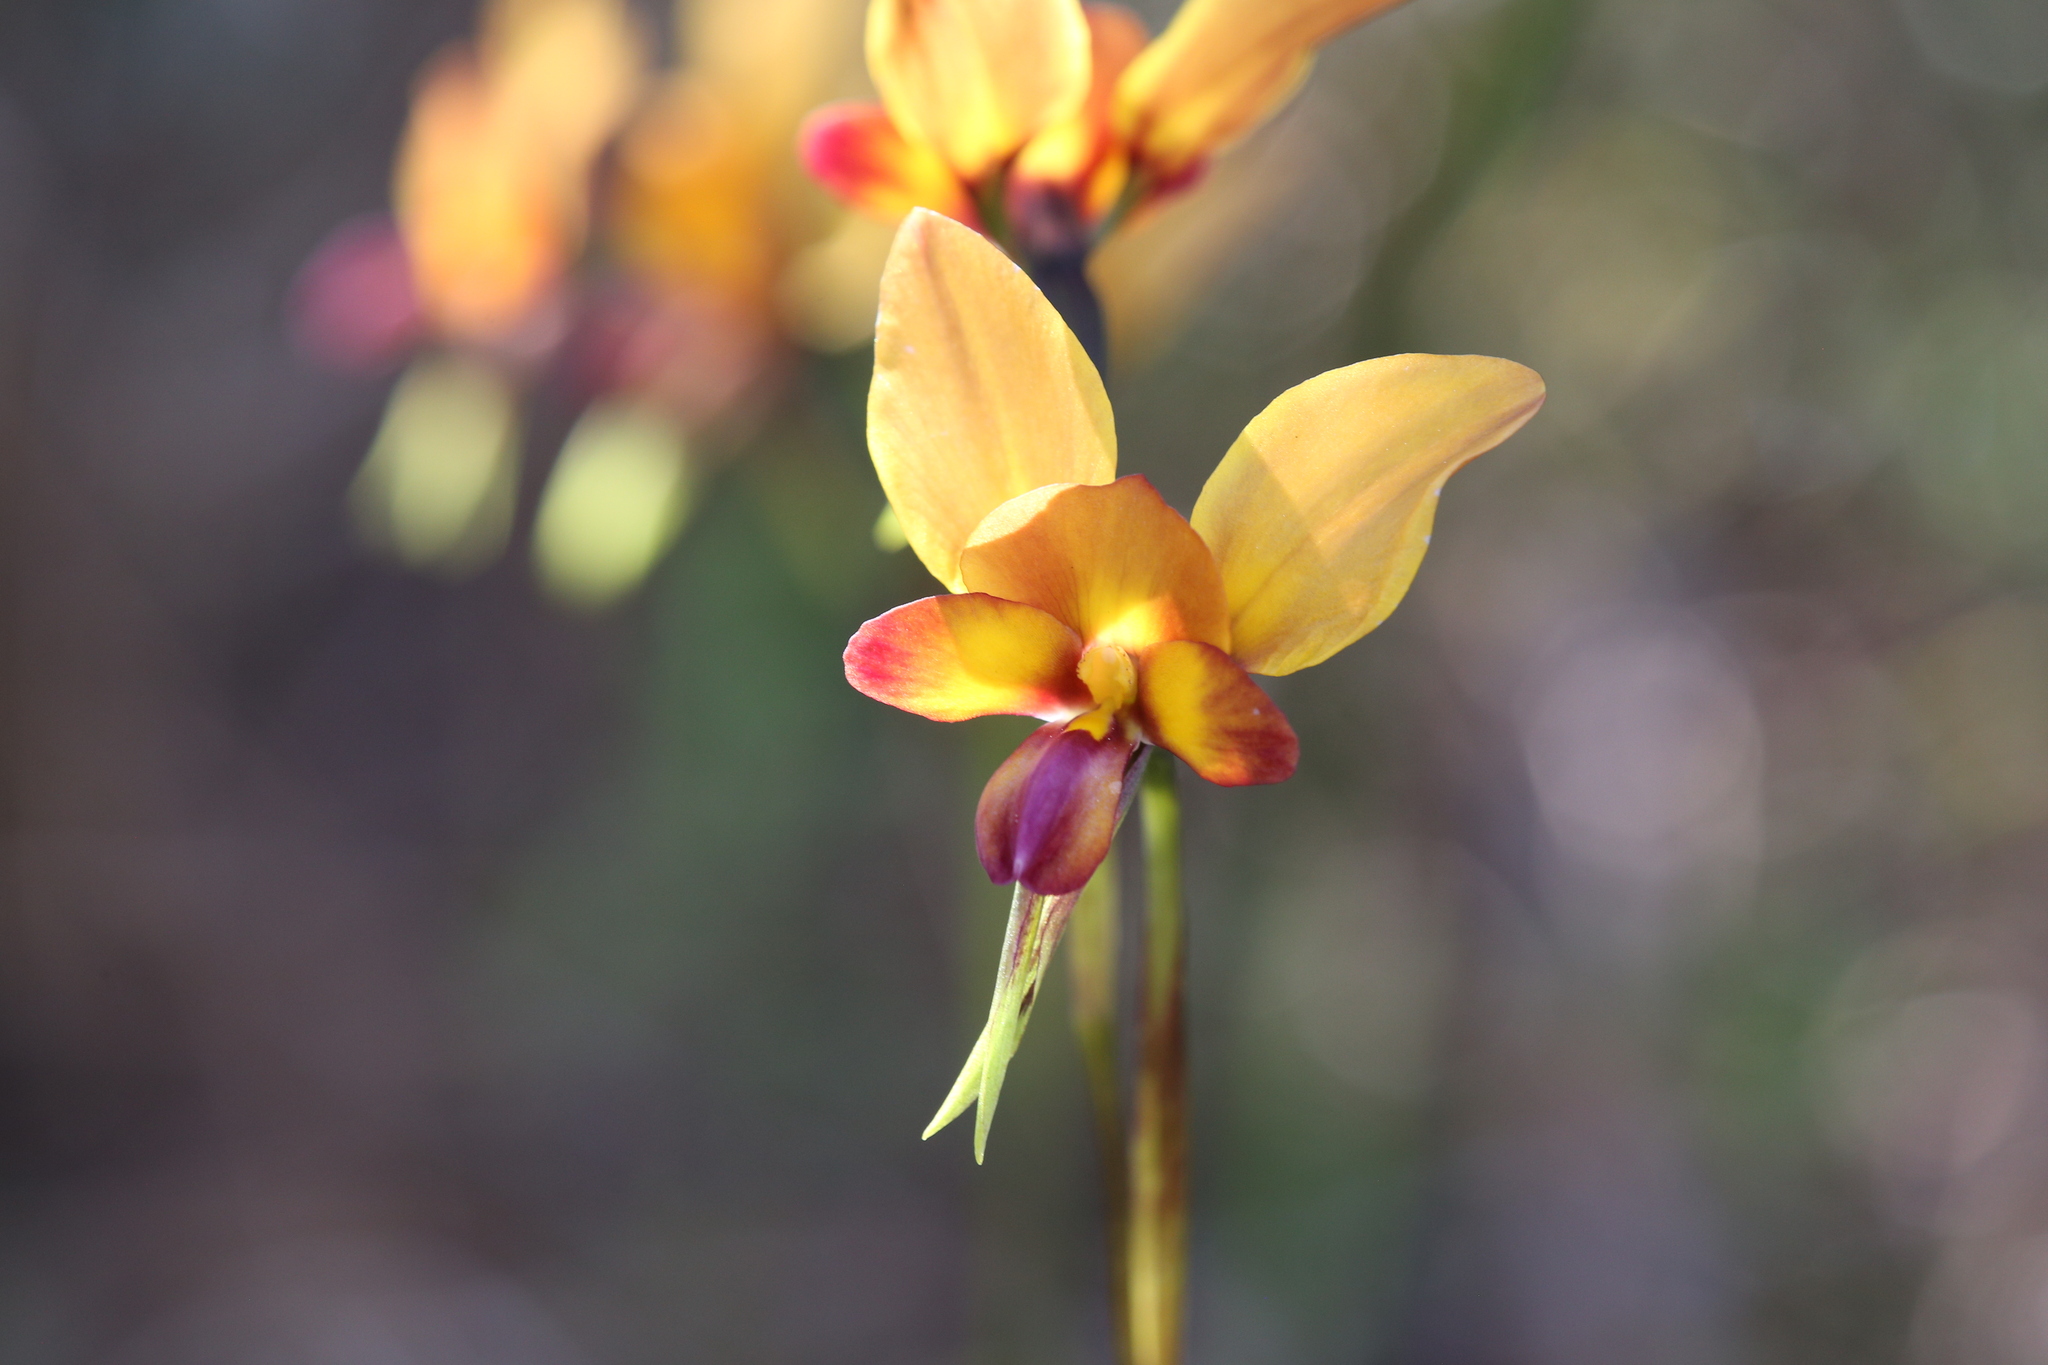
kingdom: Plantae
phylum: Tracheophyta
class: Liliopsida
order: Asparagales
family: Orchidaceae
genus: Diuris
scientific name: Diuris magnifica
